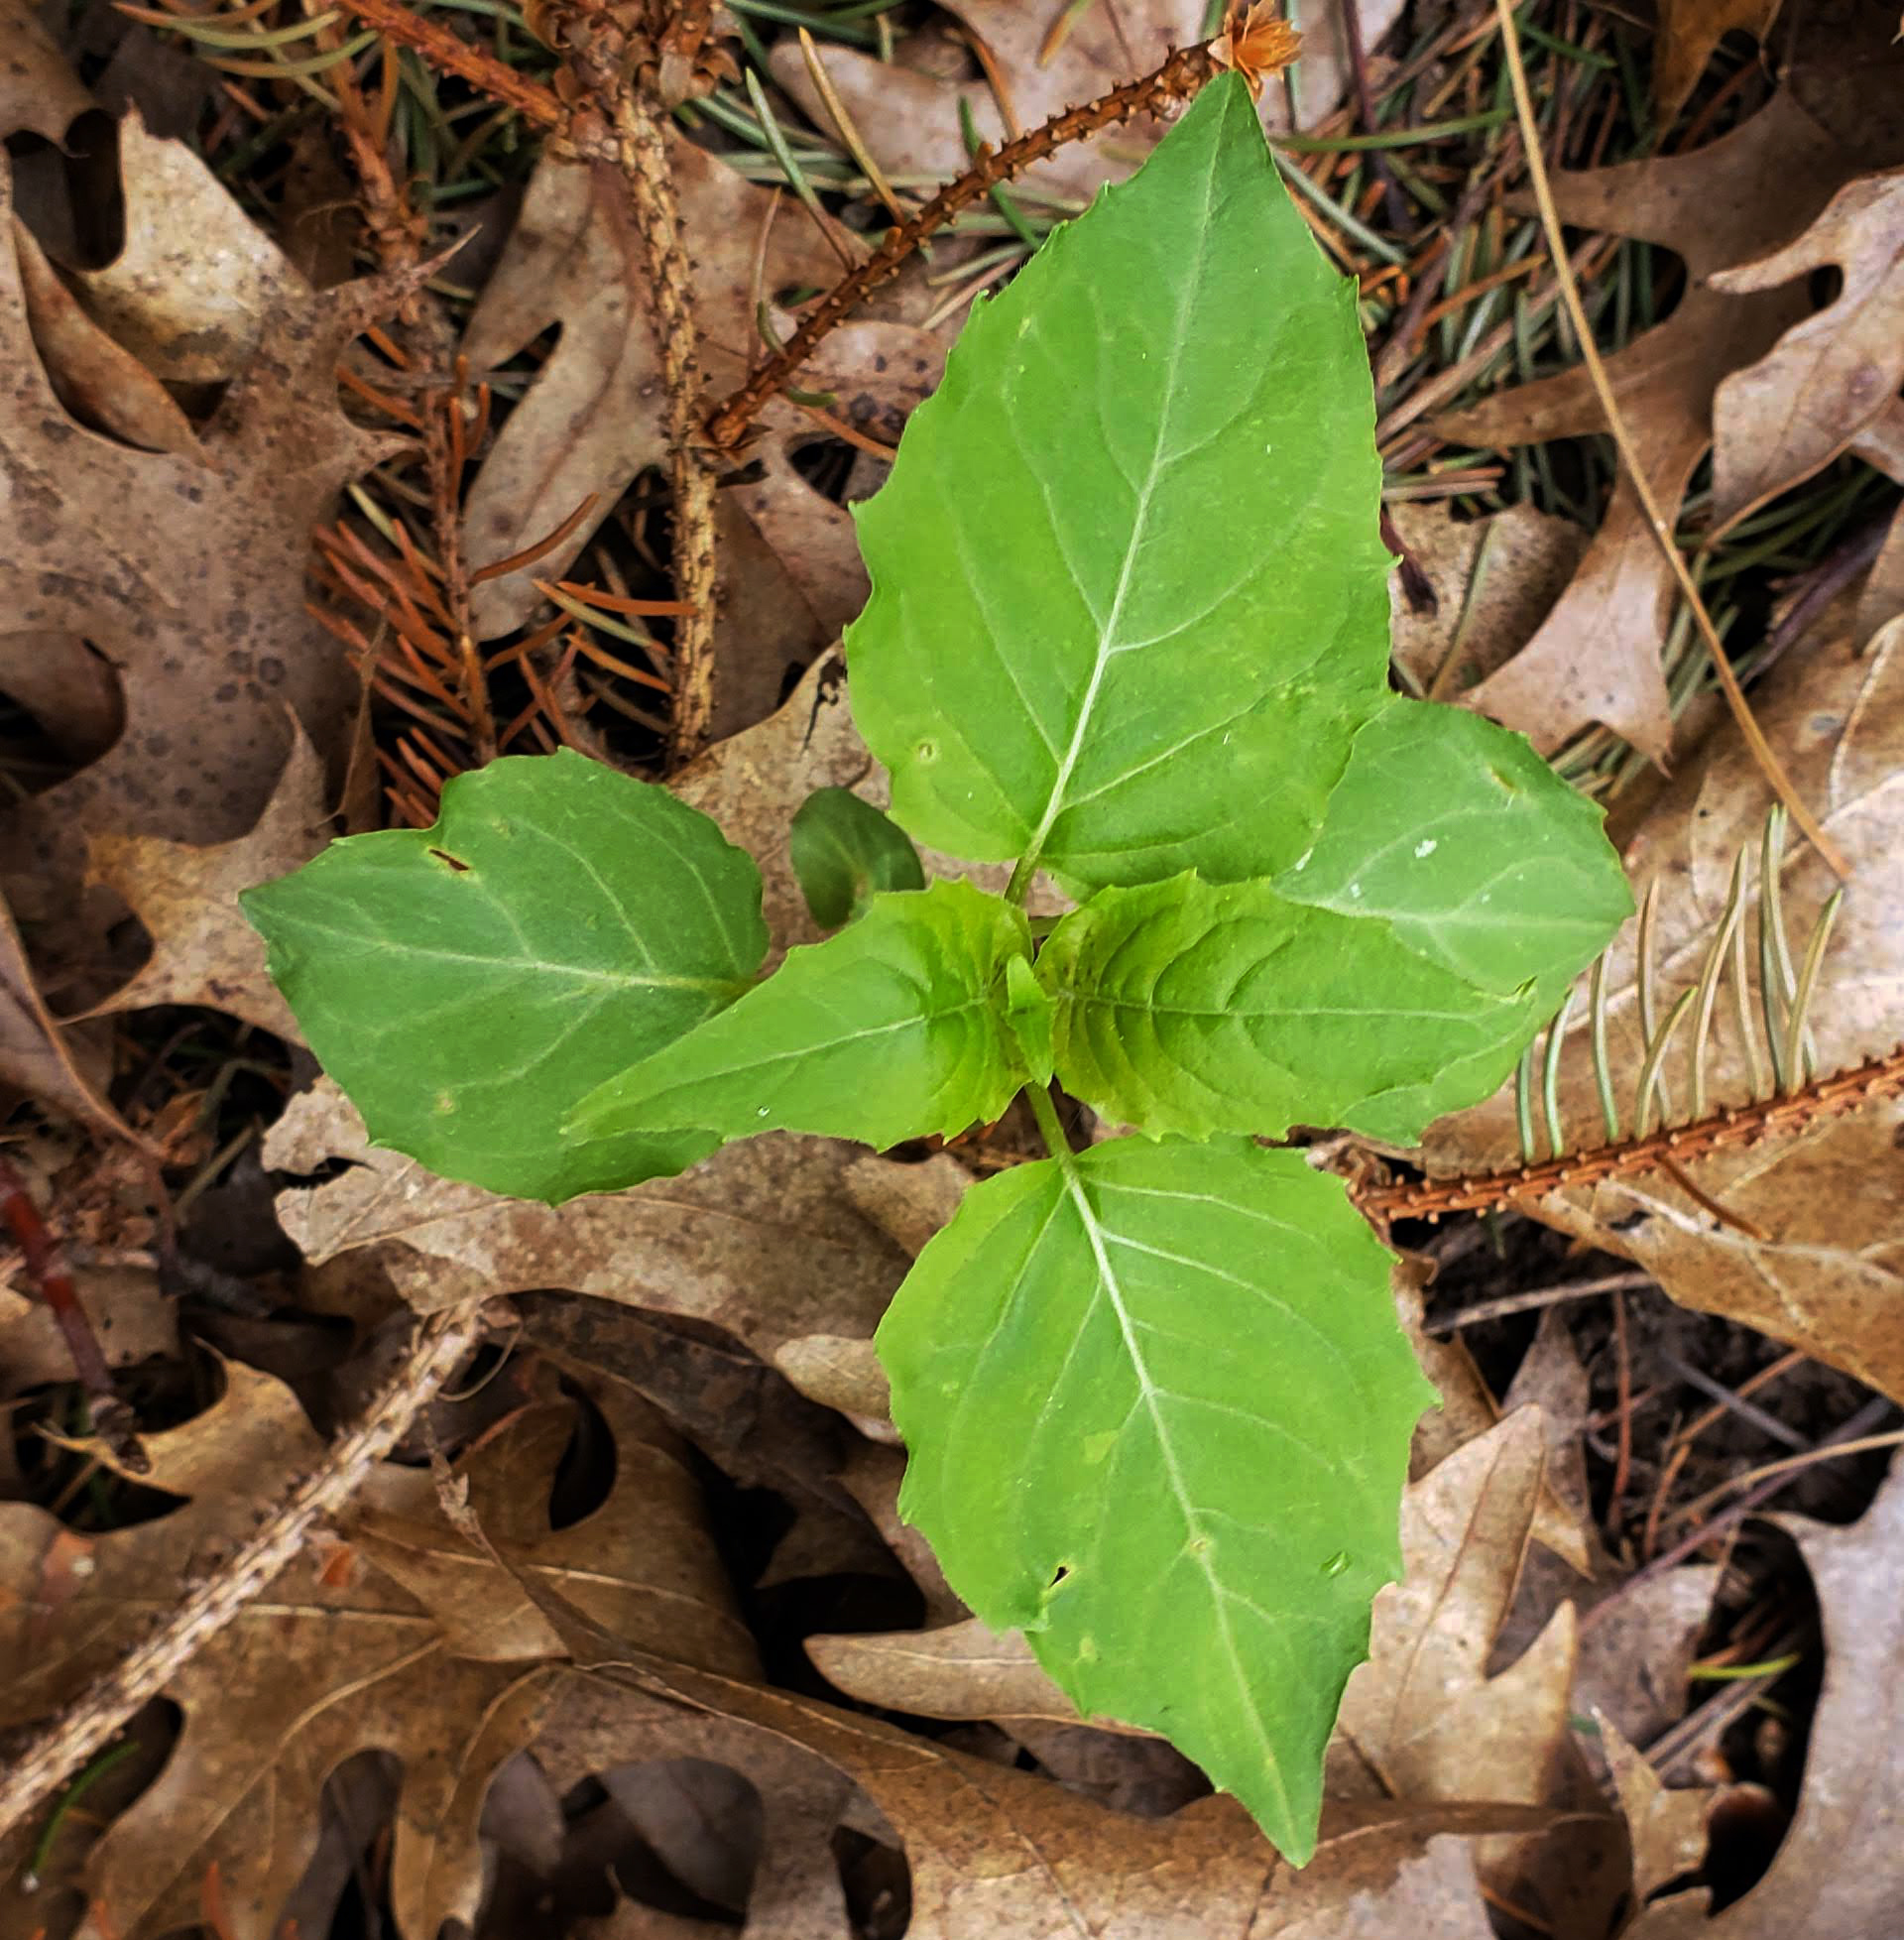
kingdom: Plantae
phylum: Tracheophyta
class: Magnoliopsida
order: Myrtales
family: Onagraceae
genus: Circaea
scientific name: Circaea canadensis
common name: Broad-leaved enchanter's nightshade
